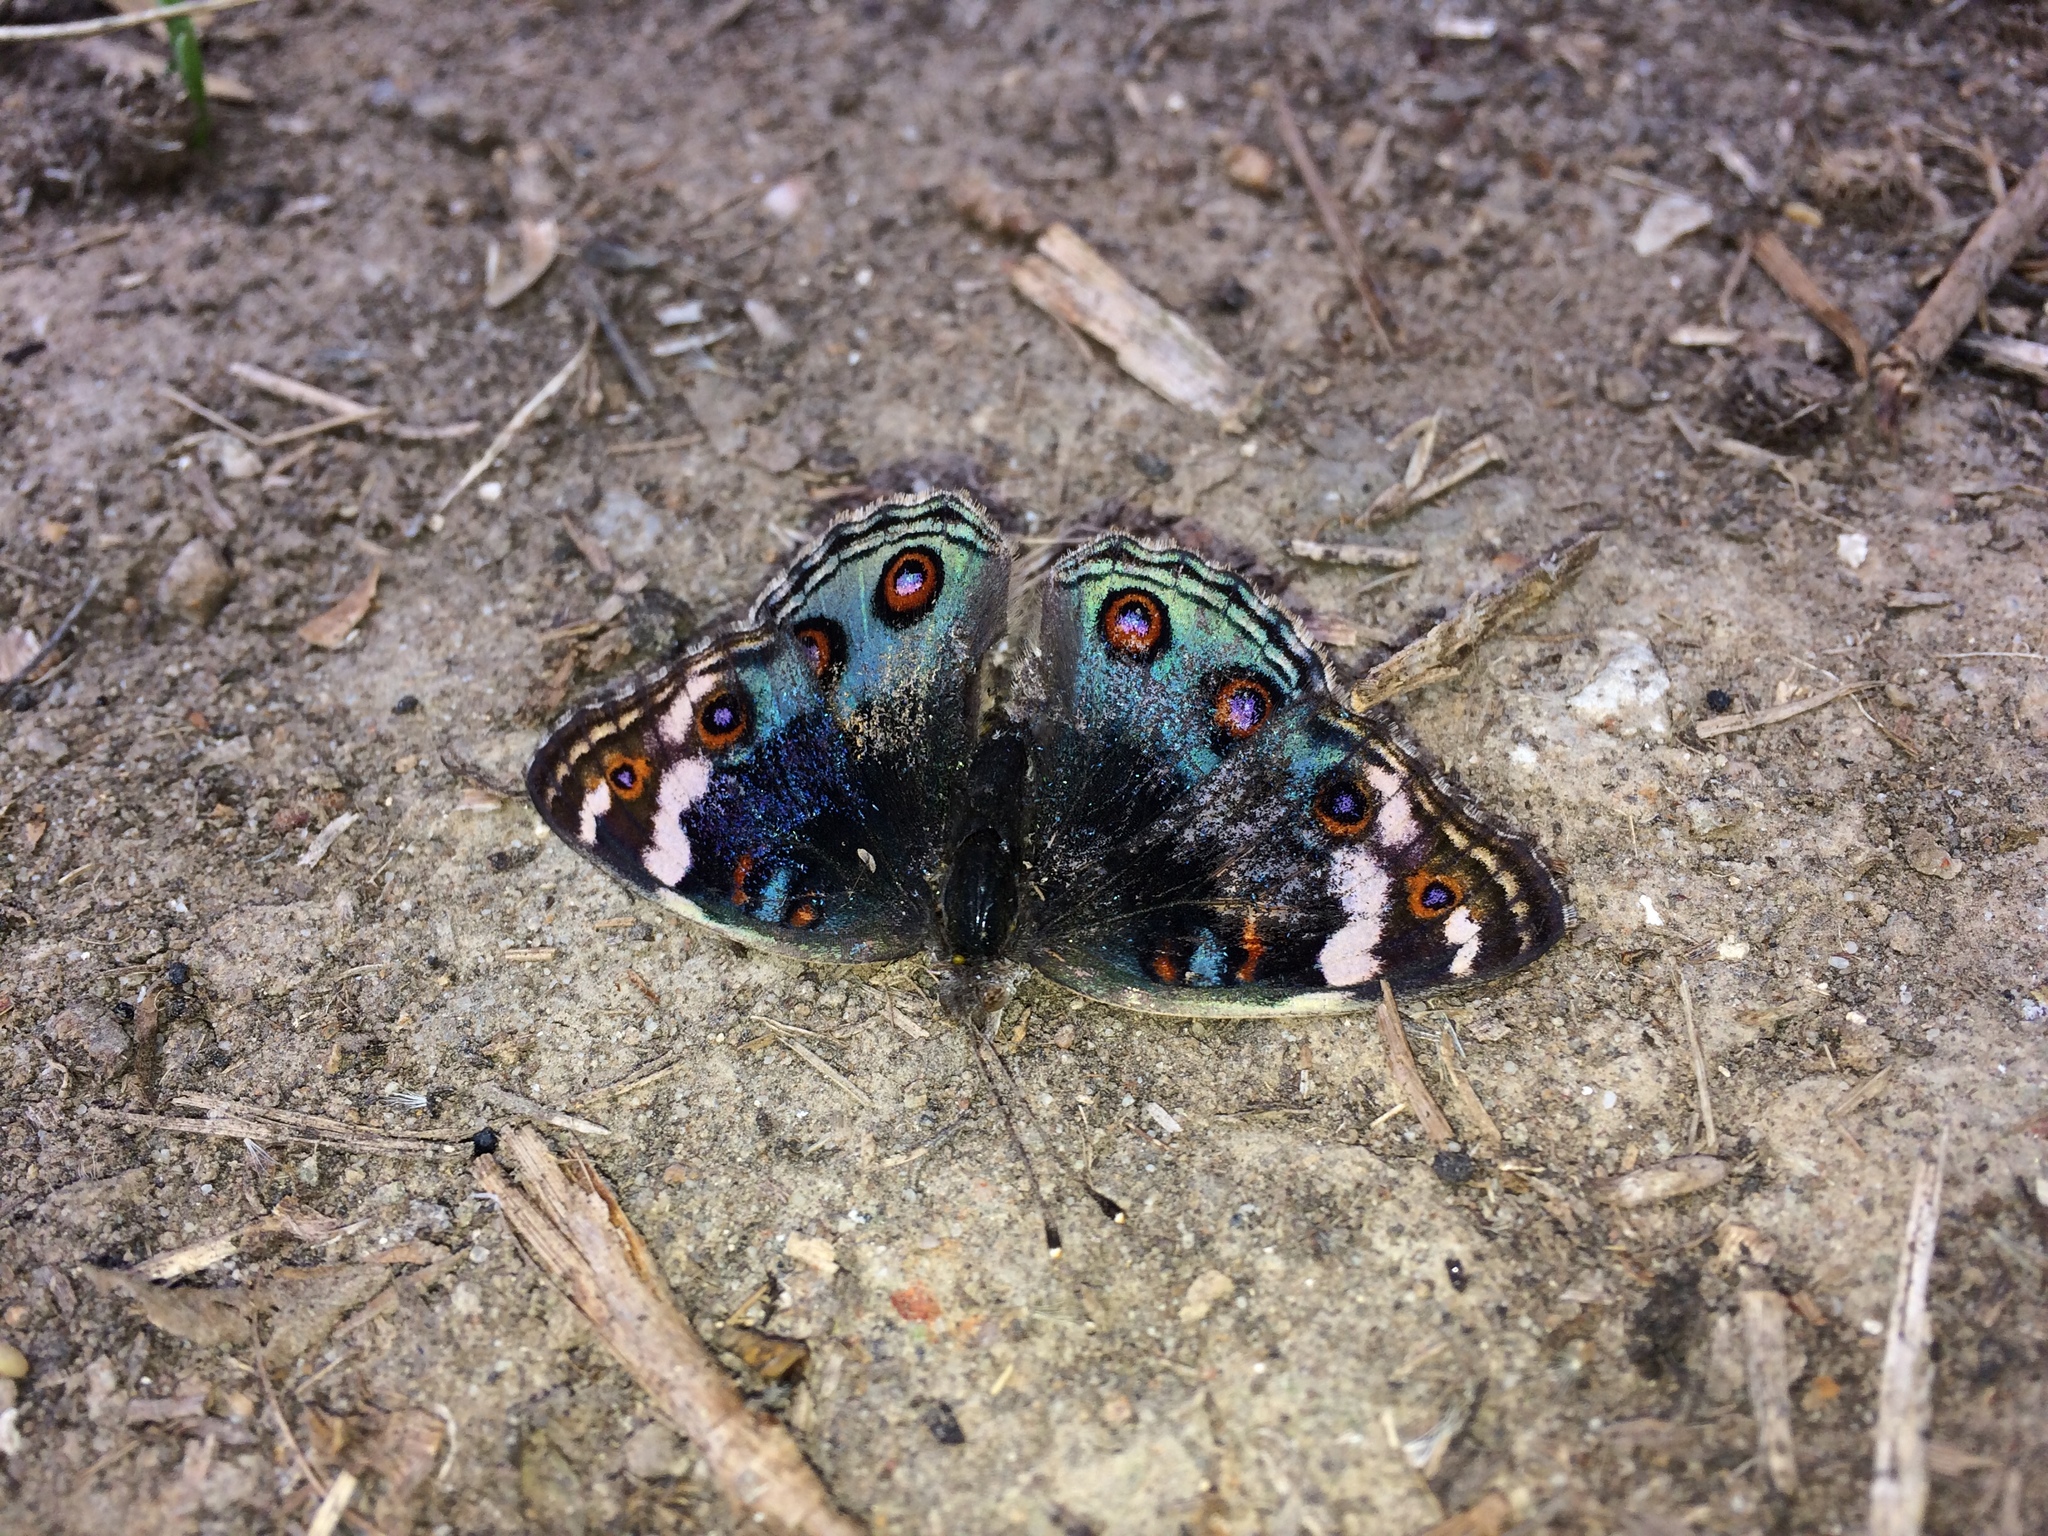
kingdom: Animalia
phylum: Arthropoda
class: Insecta
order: Lepidoptera
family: Nymphalidae
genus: Junonia
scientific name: Junonia orithya
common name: Blue pansy
